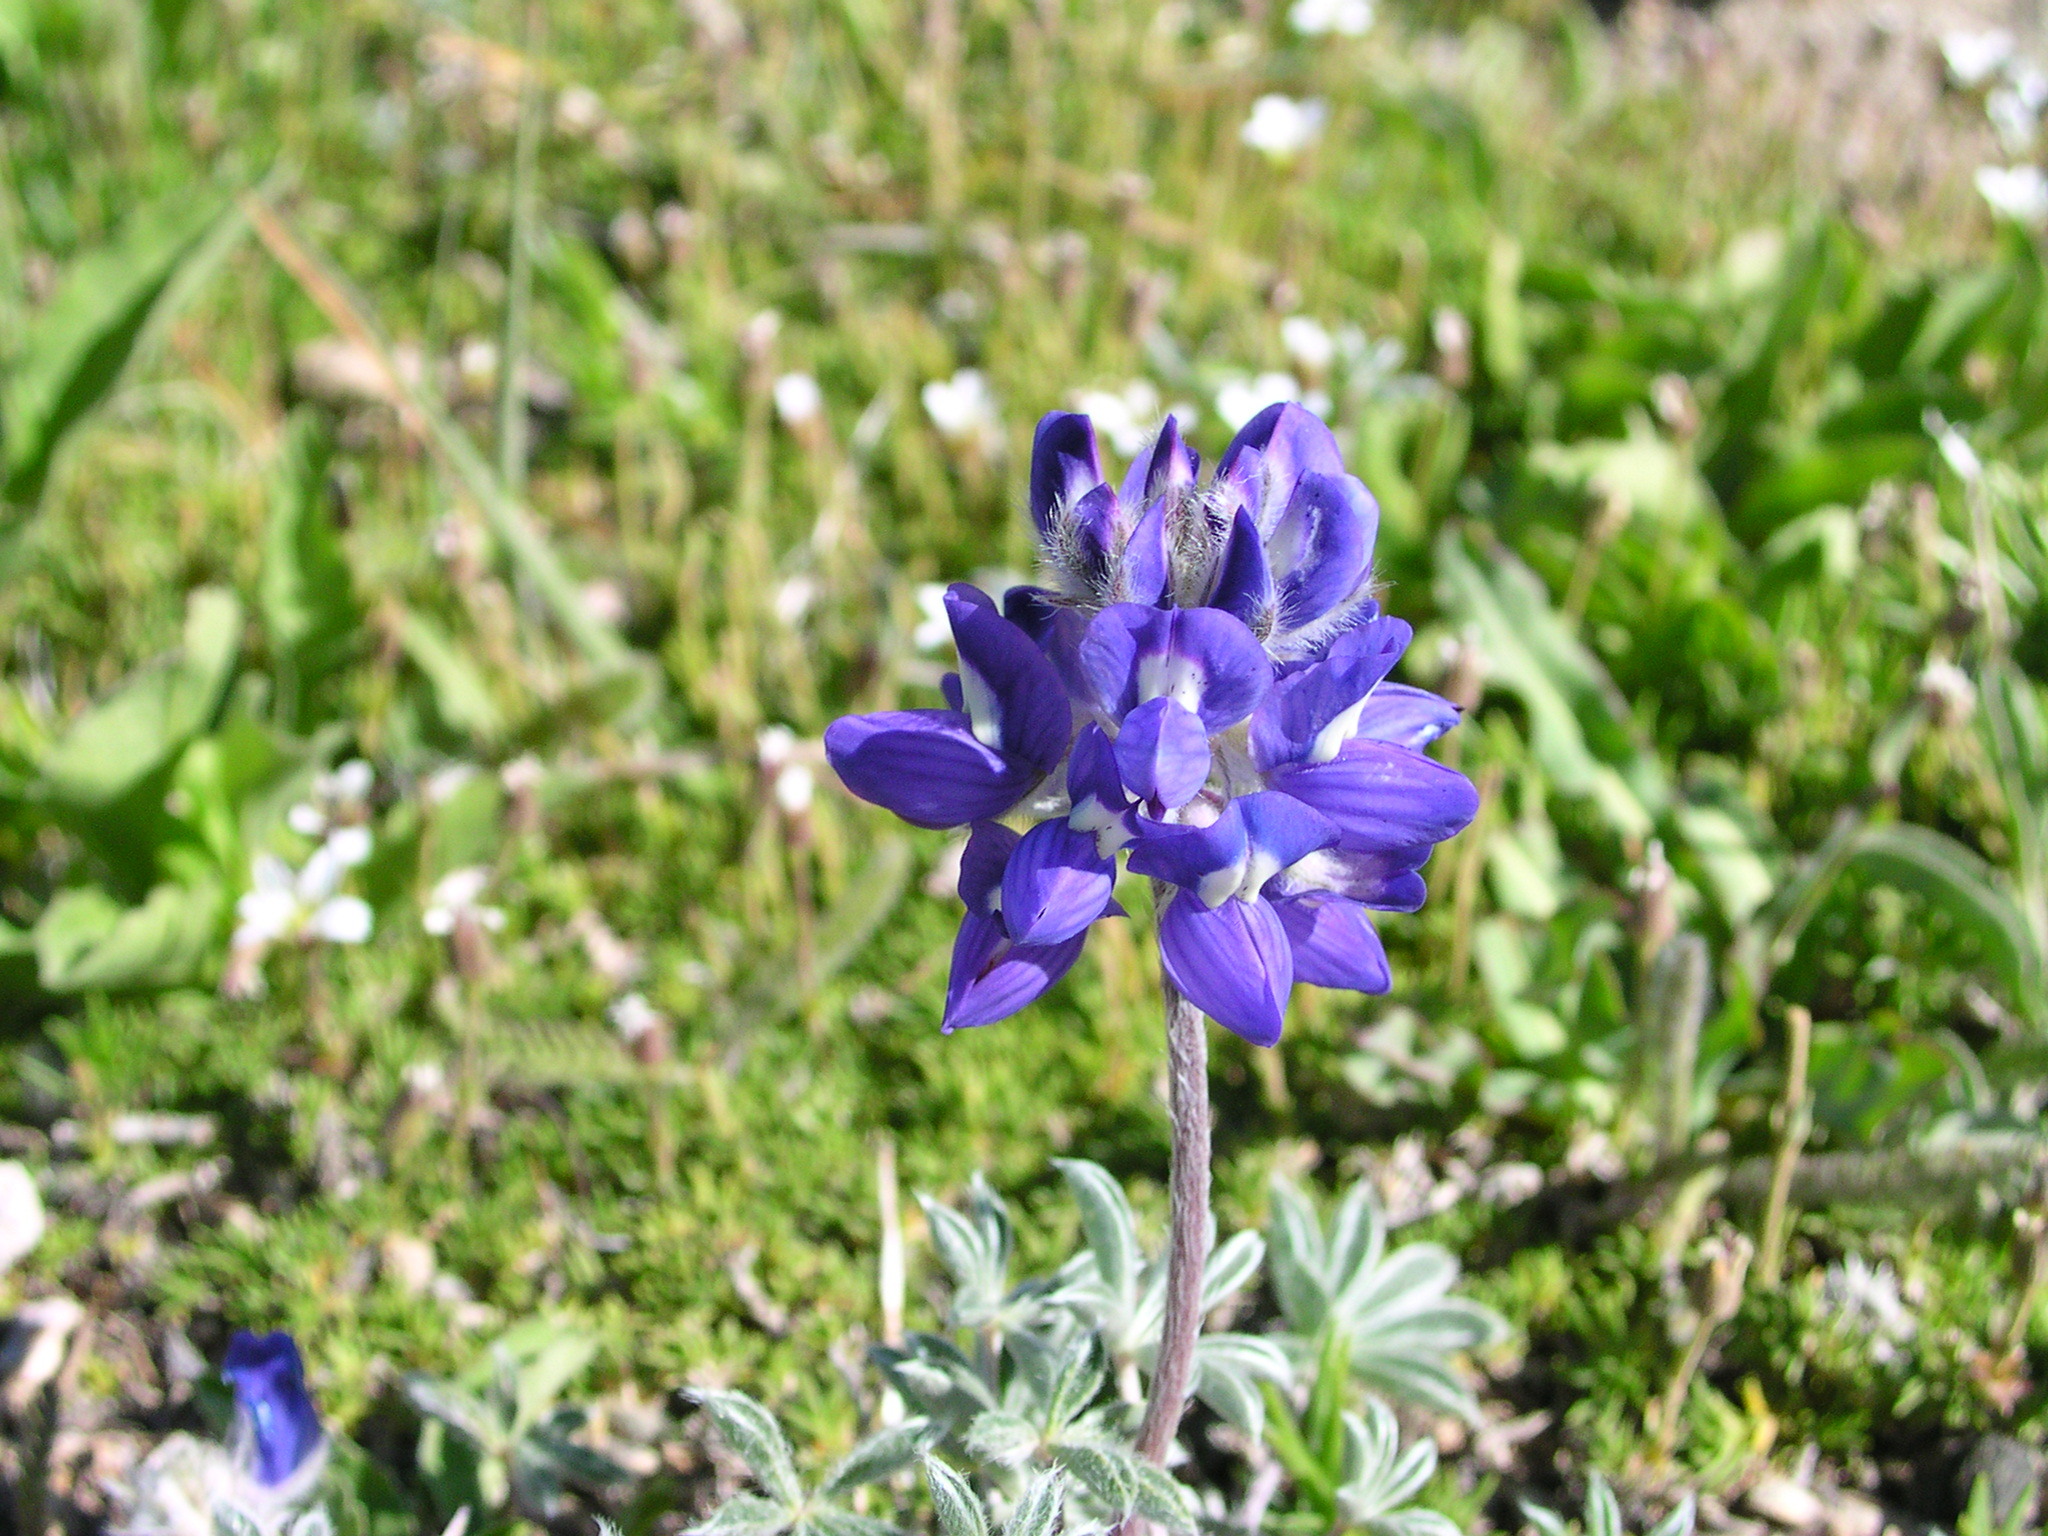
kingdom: Plantae
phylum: Tracheophyta
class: Magnoliopsida
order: Fabales
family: Fabaceae
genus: Lupinus
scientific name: Lupinus sellulus
